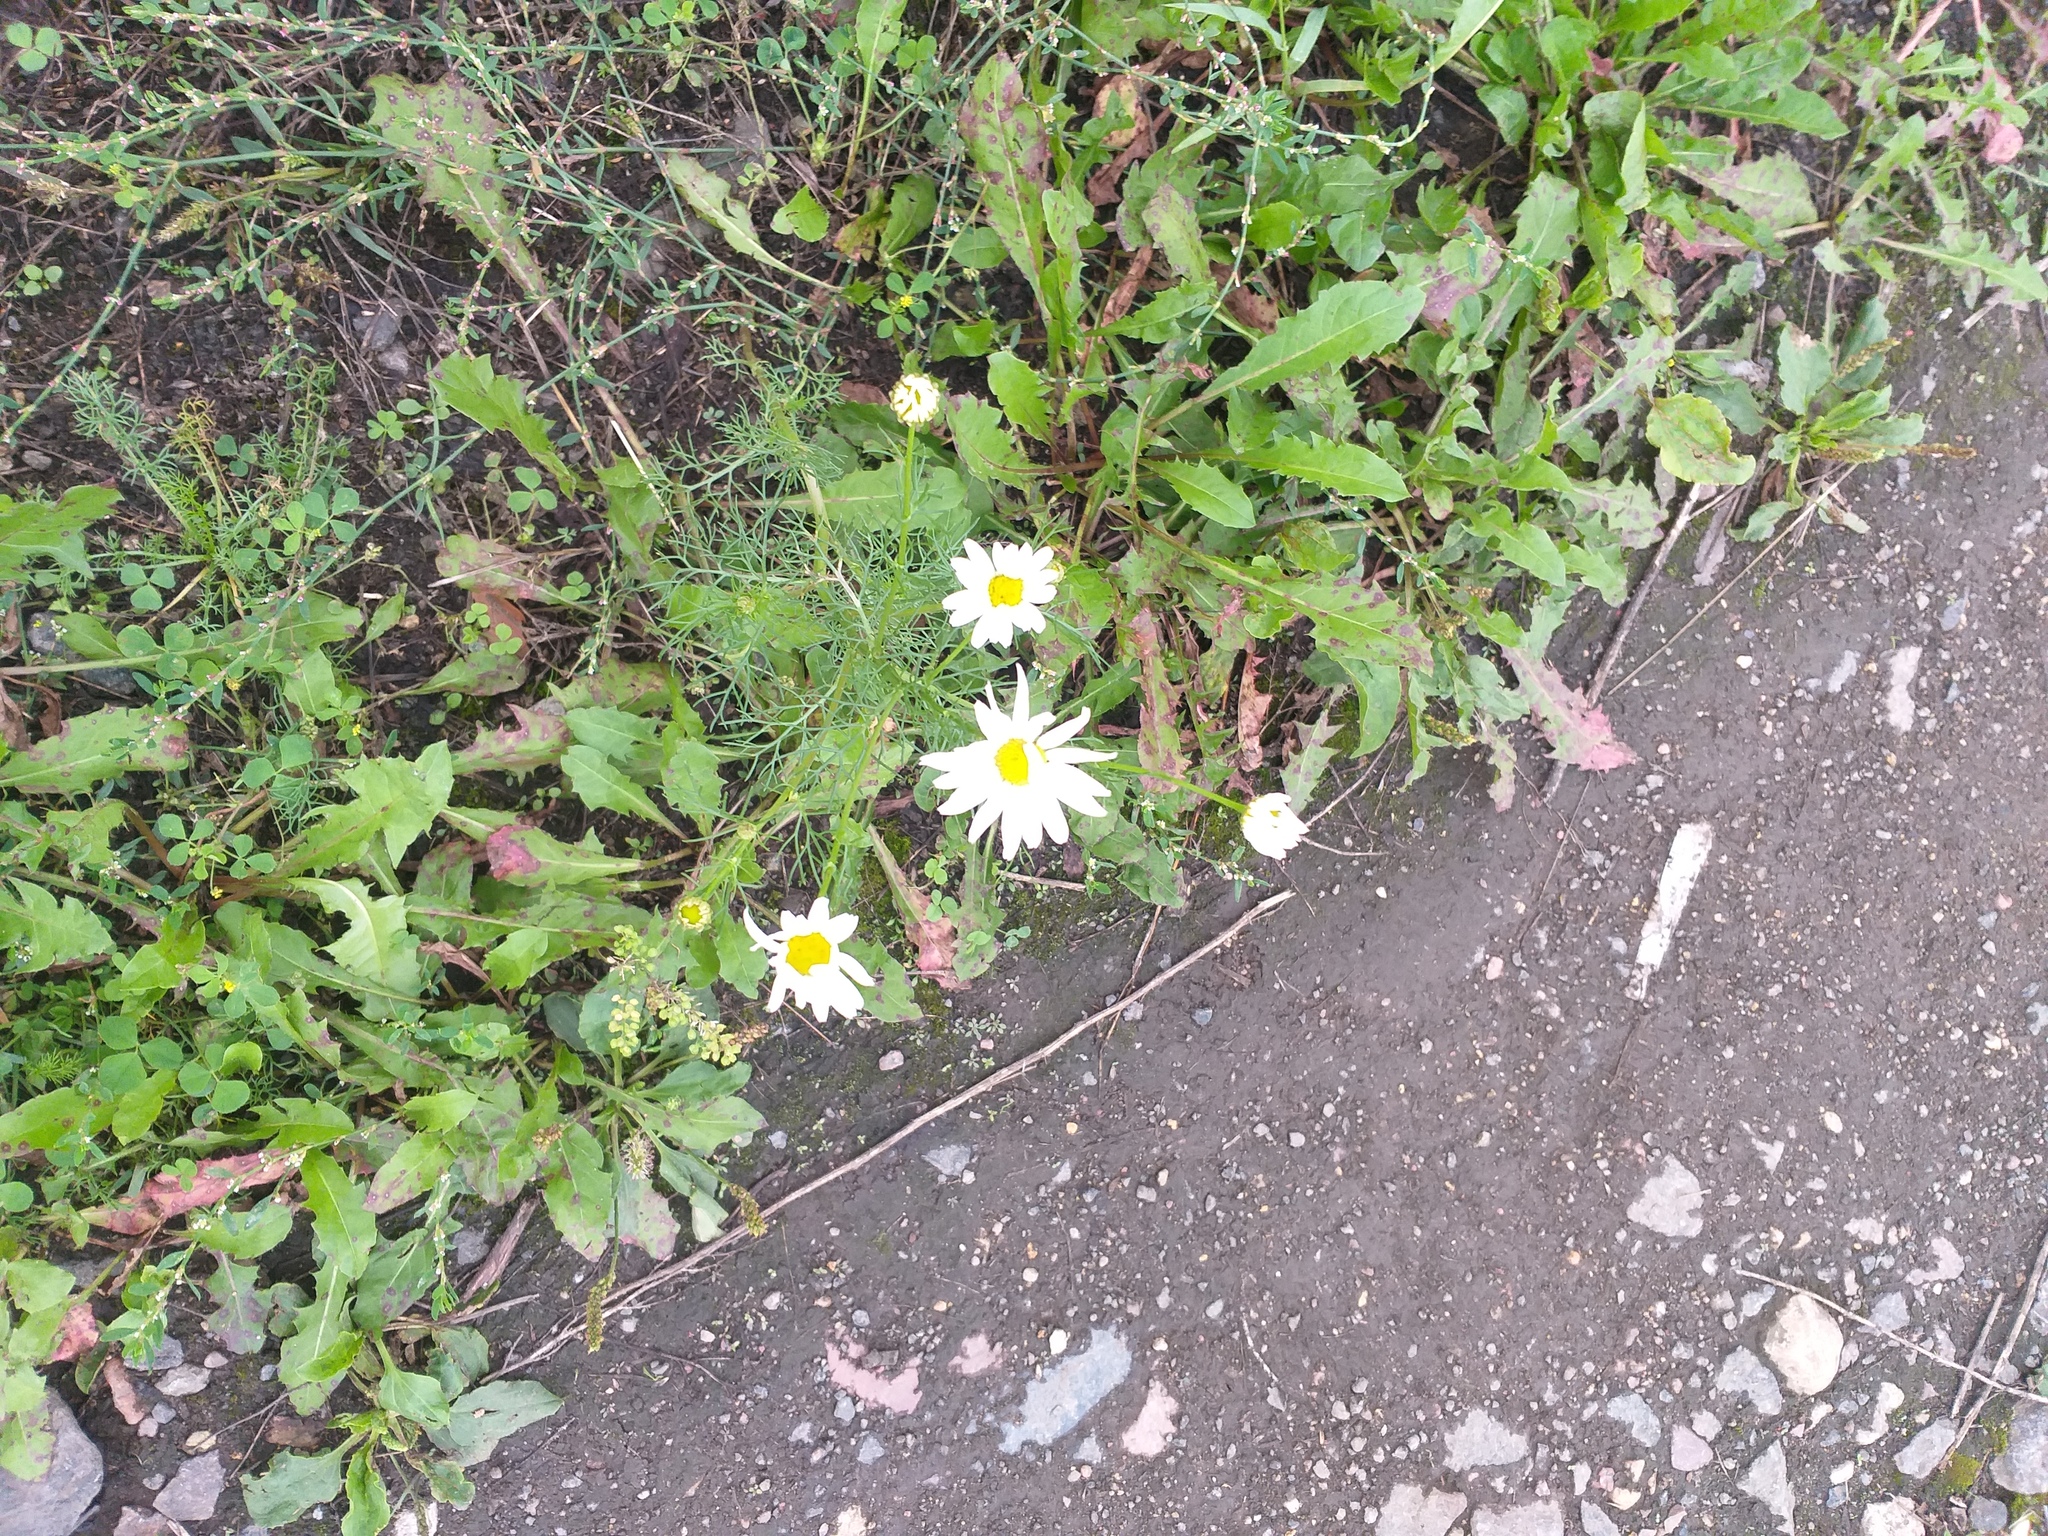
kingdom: Plantae
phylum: Tracheophyta
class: Magnoliopsida
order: Asterales
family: Asteraceae
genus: Tripleurospermum
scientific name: Tripleurospermum inodorum
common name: Scentless mayweed
